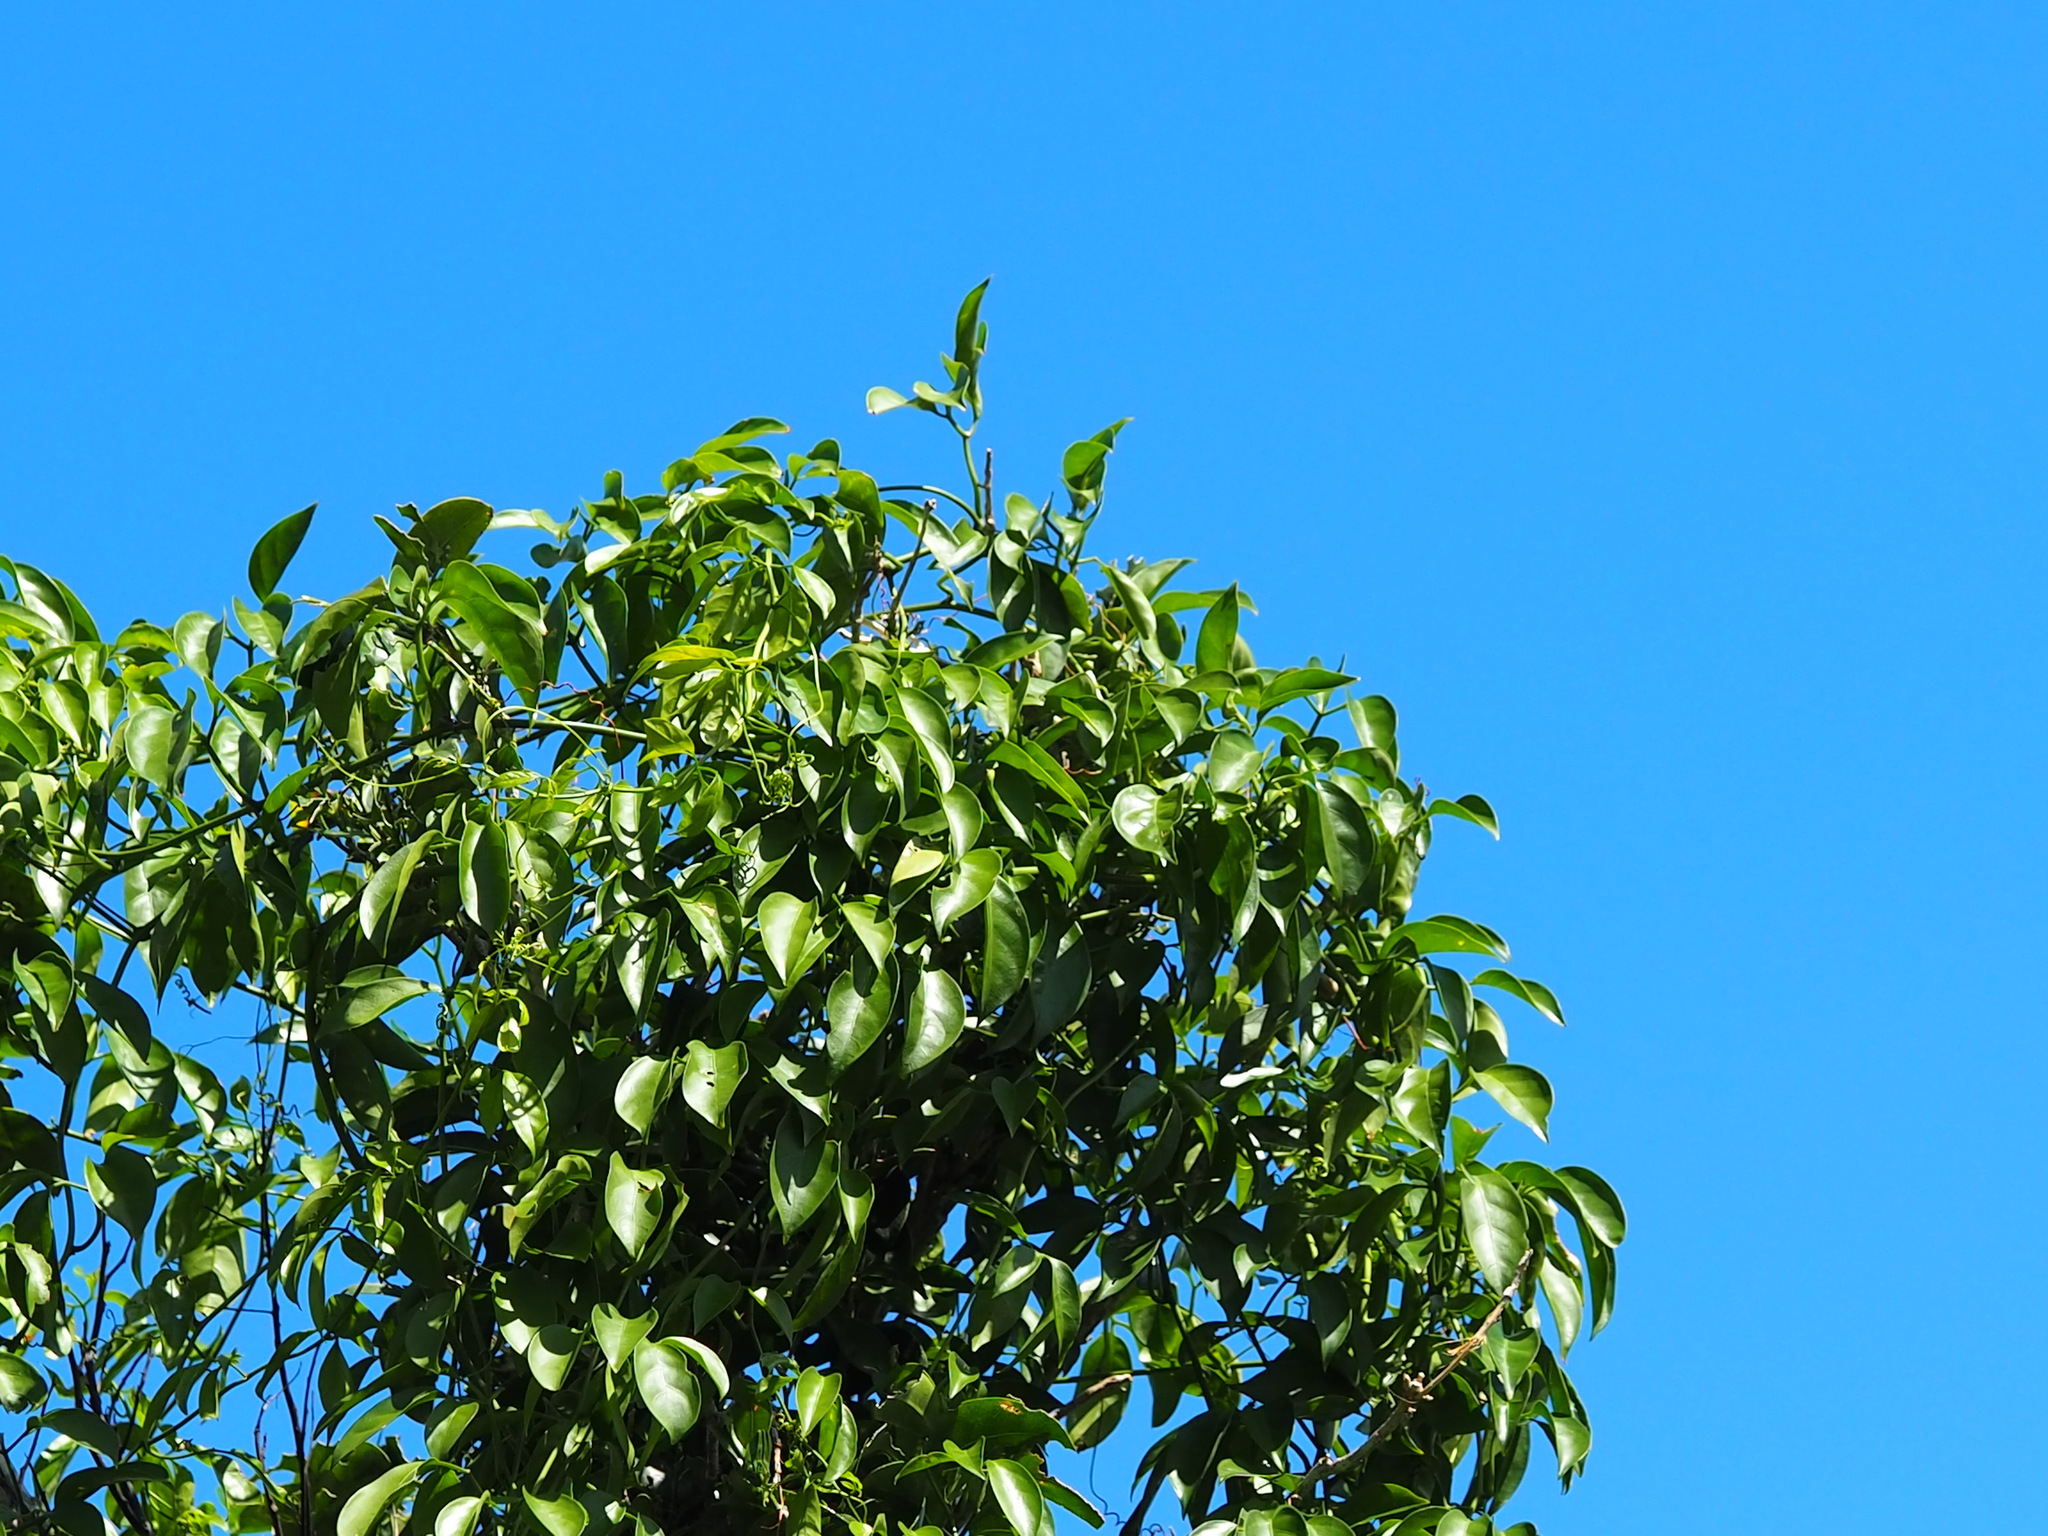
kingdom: Plantae
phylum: Tracheophyta
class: Magnoliopsida
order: Cucurbitales
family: Cucurbitaceae
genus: Neoalsomitra
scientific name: Neoalsomitra clavigera
